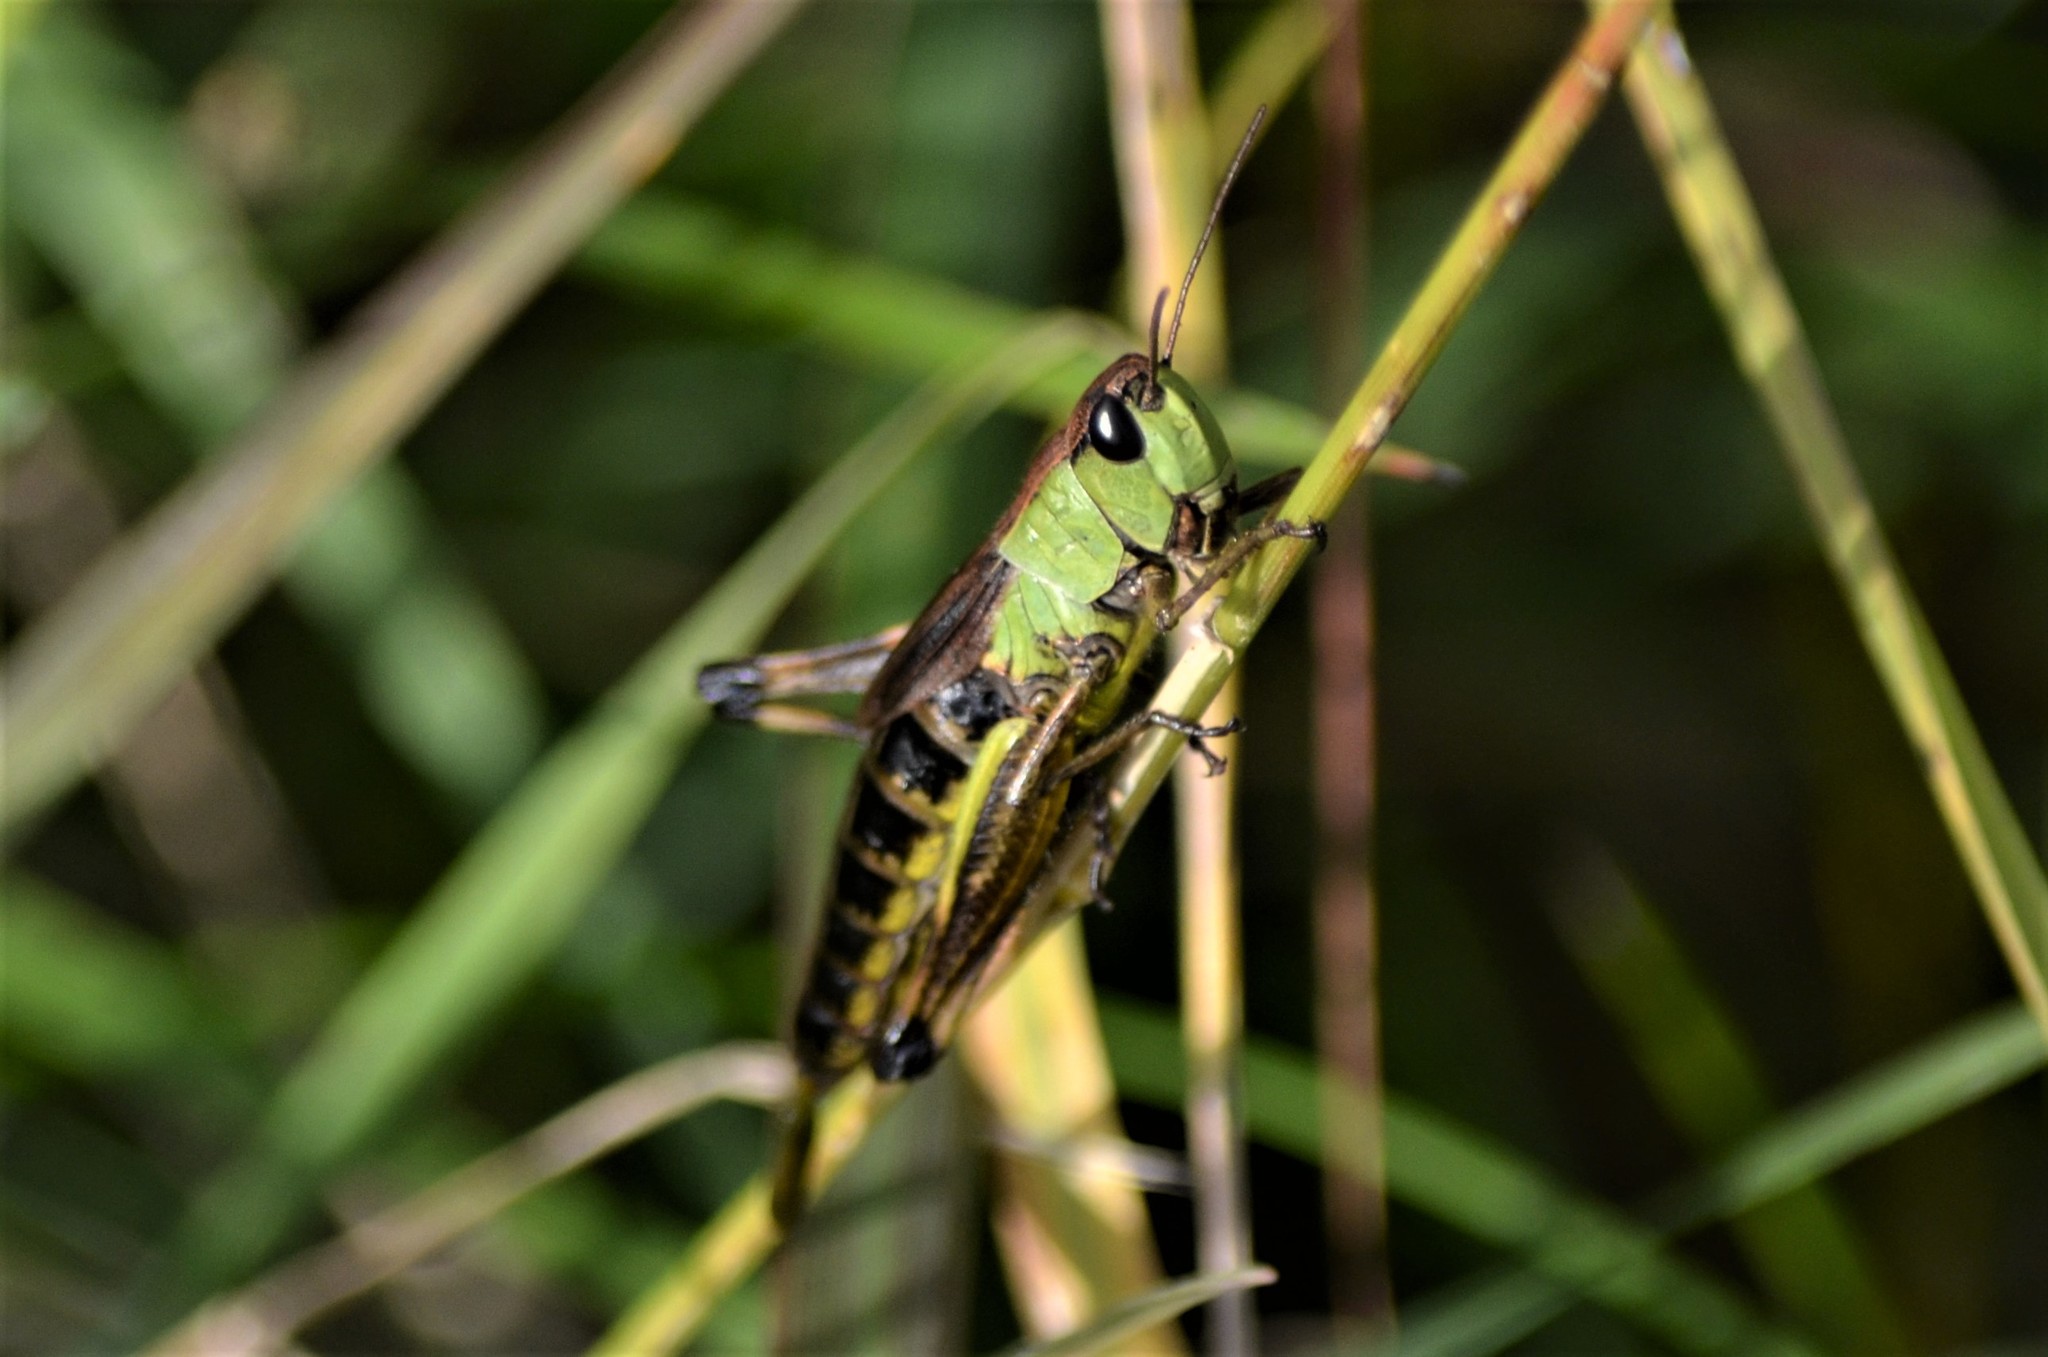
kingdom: Animalia
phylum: Arthropoda
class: Insecta
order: Orthoptera
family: Acrididae
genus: Pseudochorthippus
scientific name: Pseudochorthippus parallelus
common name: Meadow grasshopper
